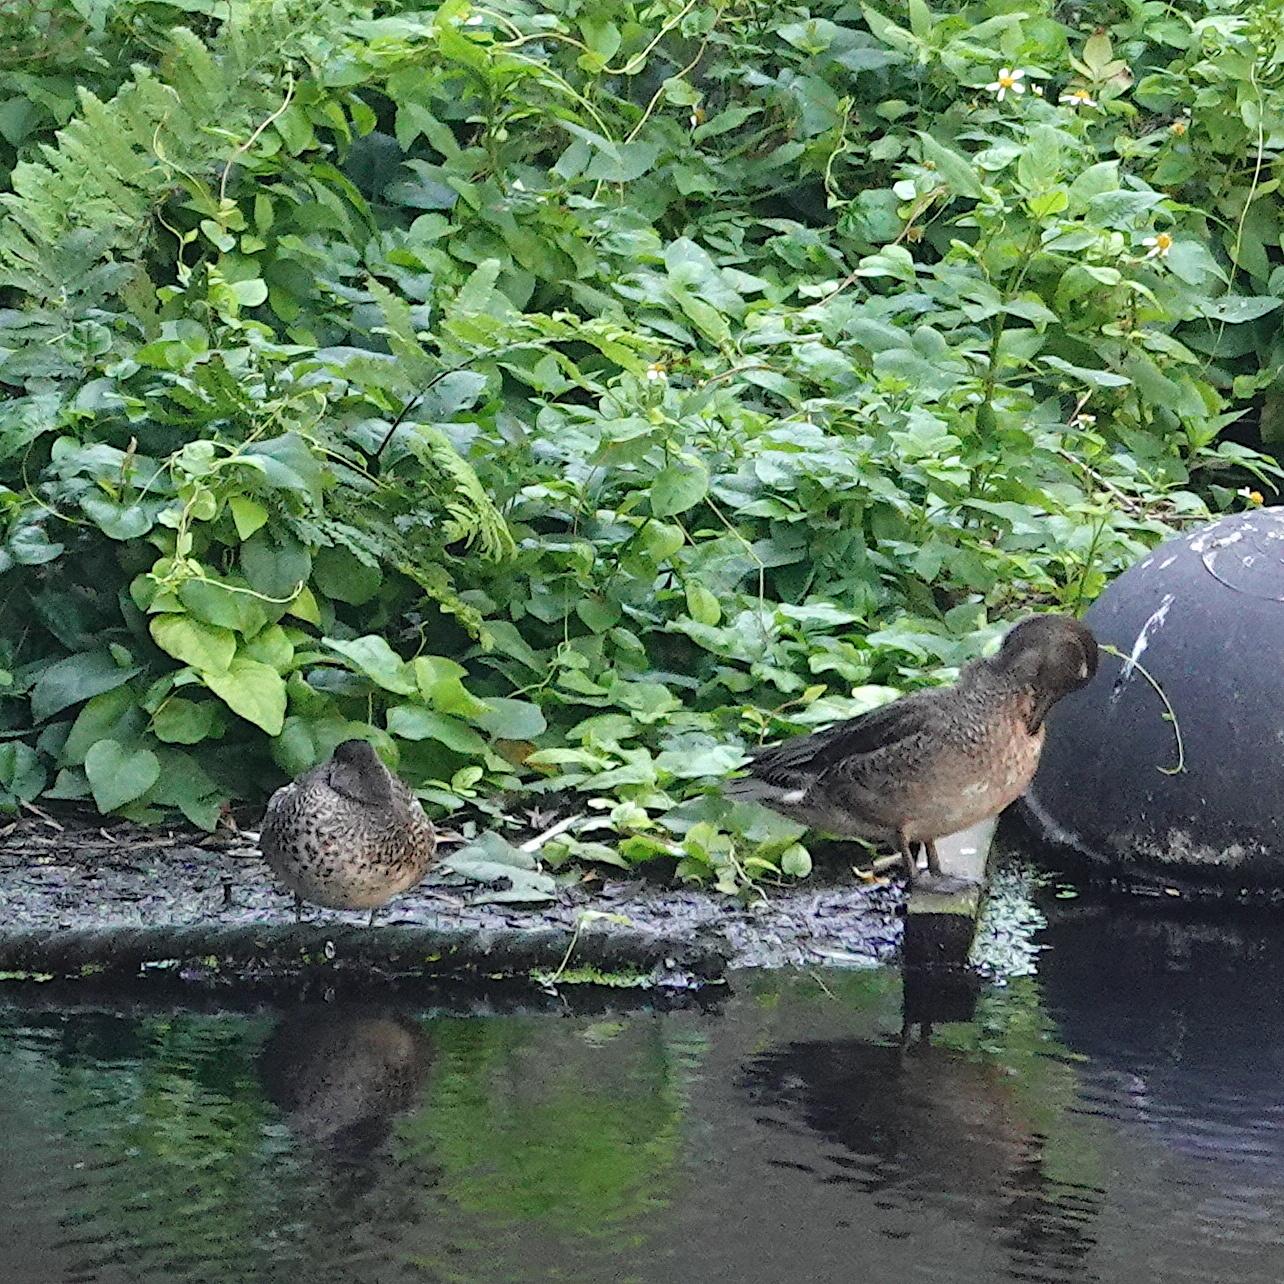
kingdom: Animalia
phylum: Chordata
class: Aves
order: Anseriformes
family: Anatidae
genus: Anas
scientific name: Anas crecca
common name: Eurasian teal
